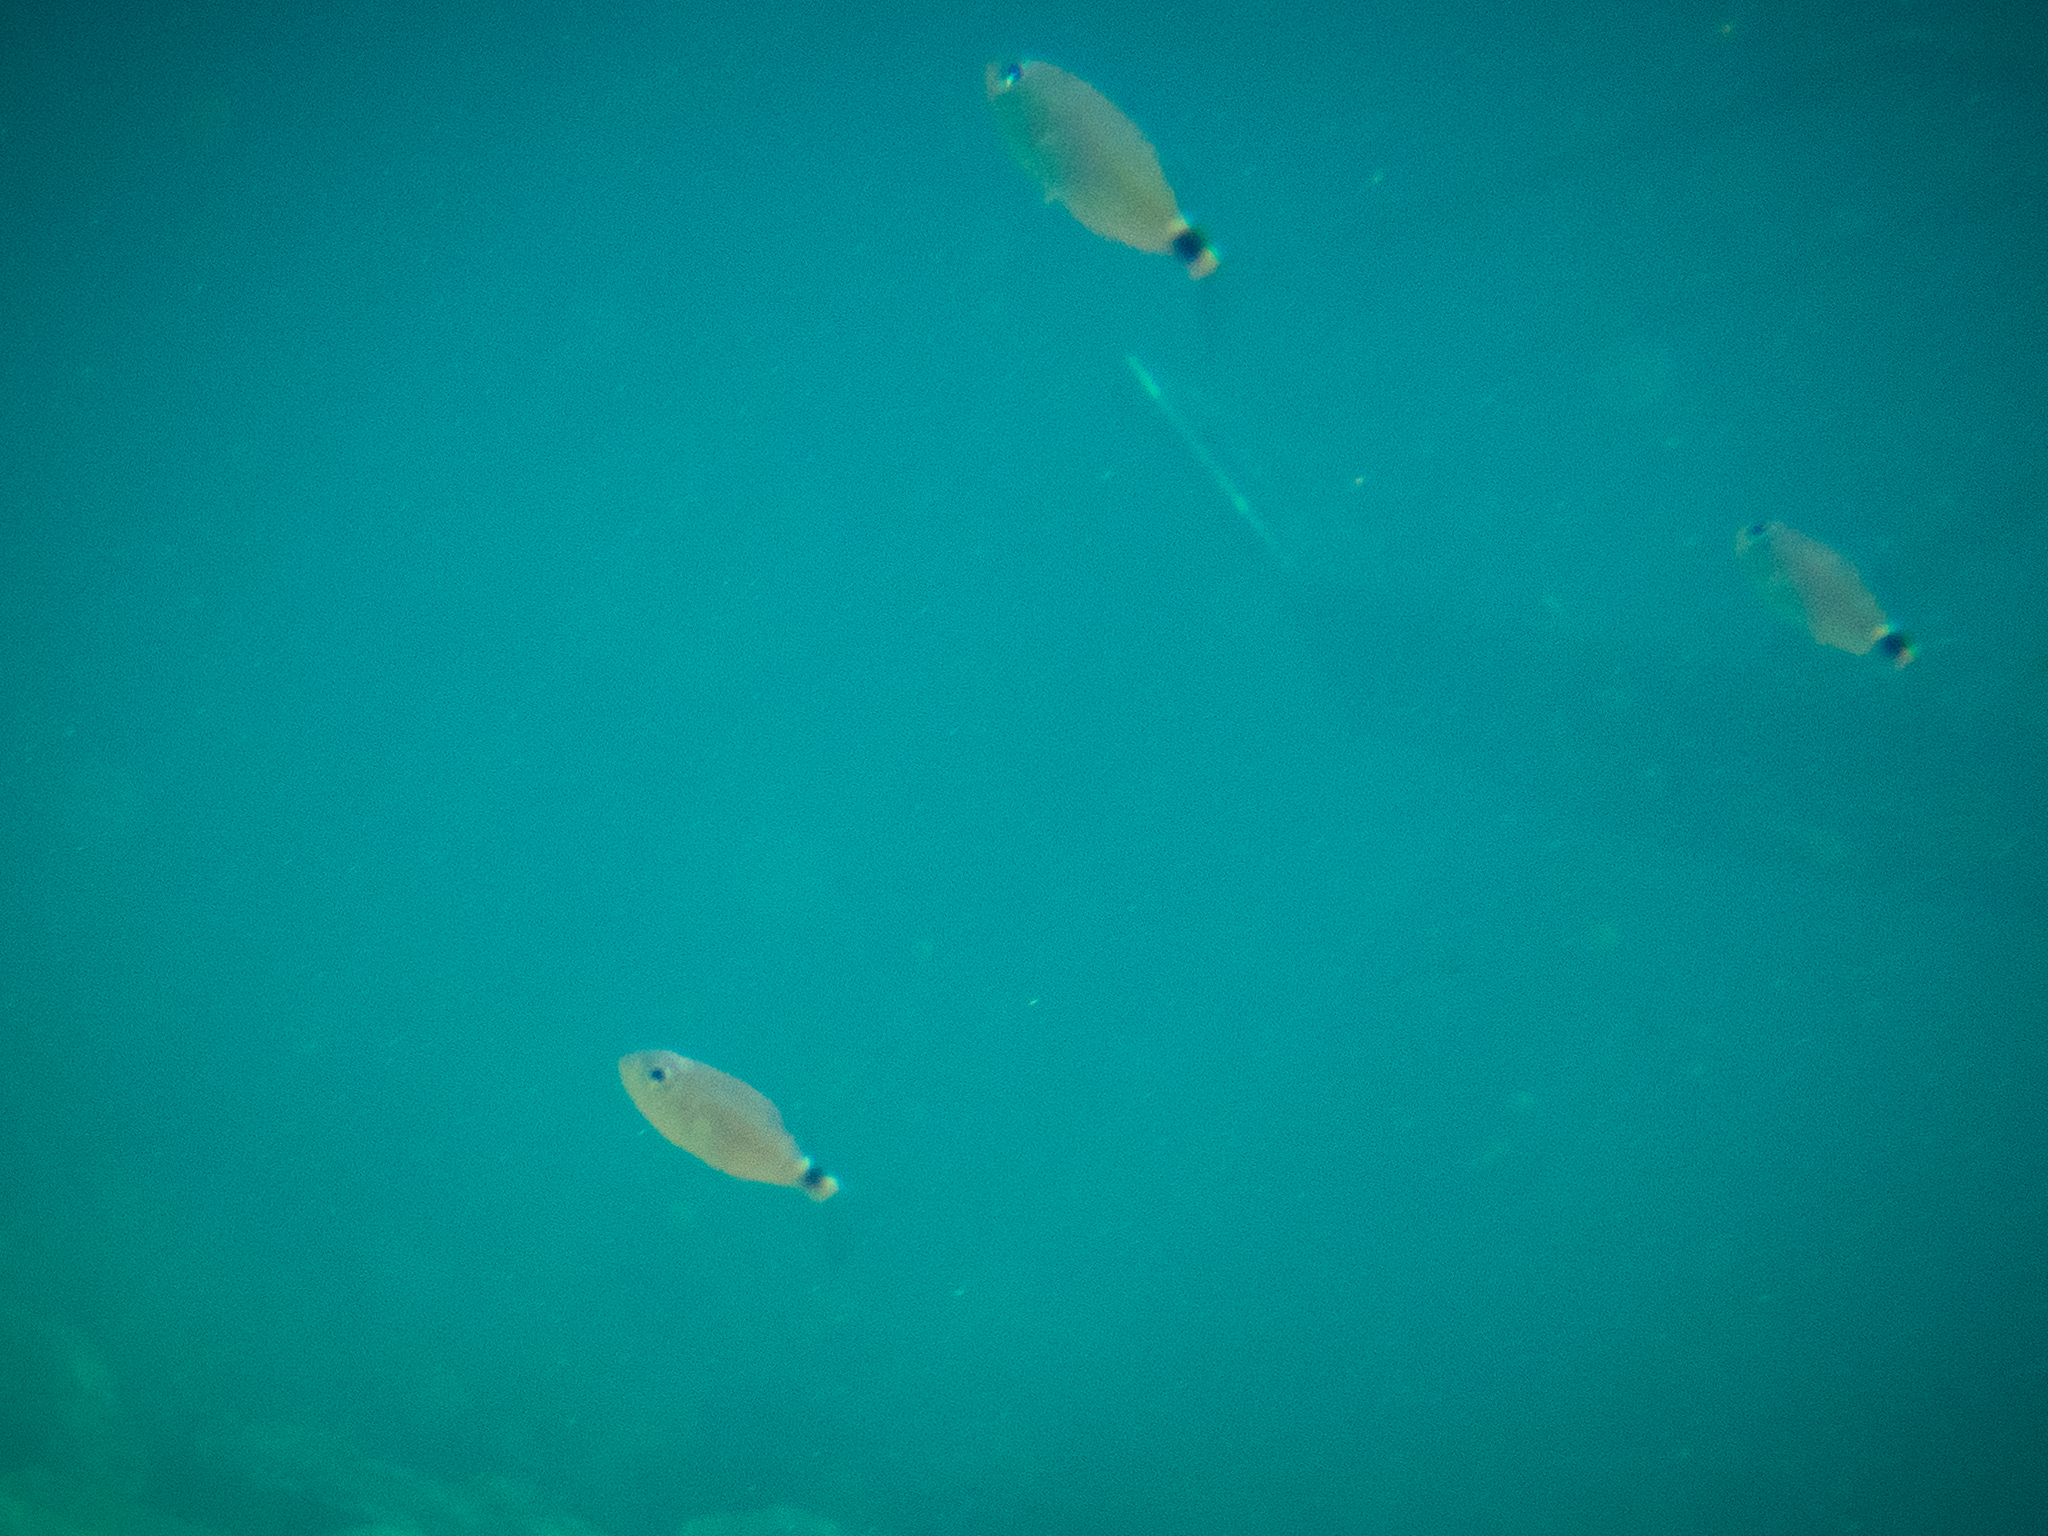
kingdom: Animalia
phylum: Chordata
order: Perciformes
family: Sparidae
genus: Oblada
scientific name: Oblada melanura
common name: Saddled seabream
